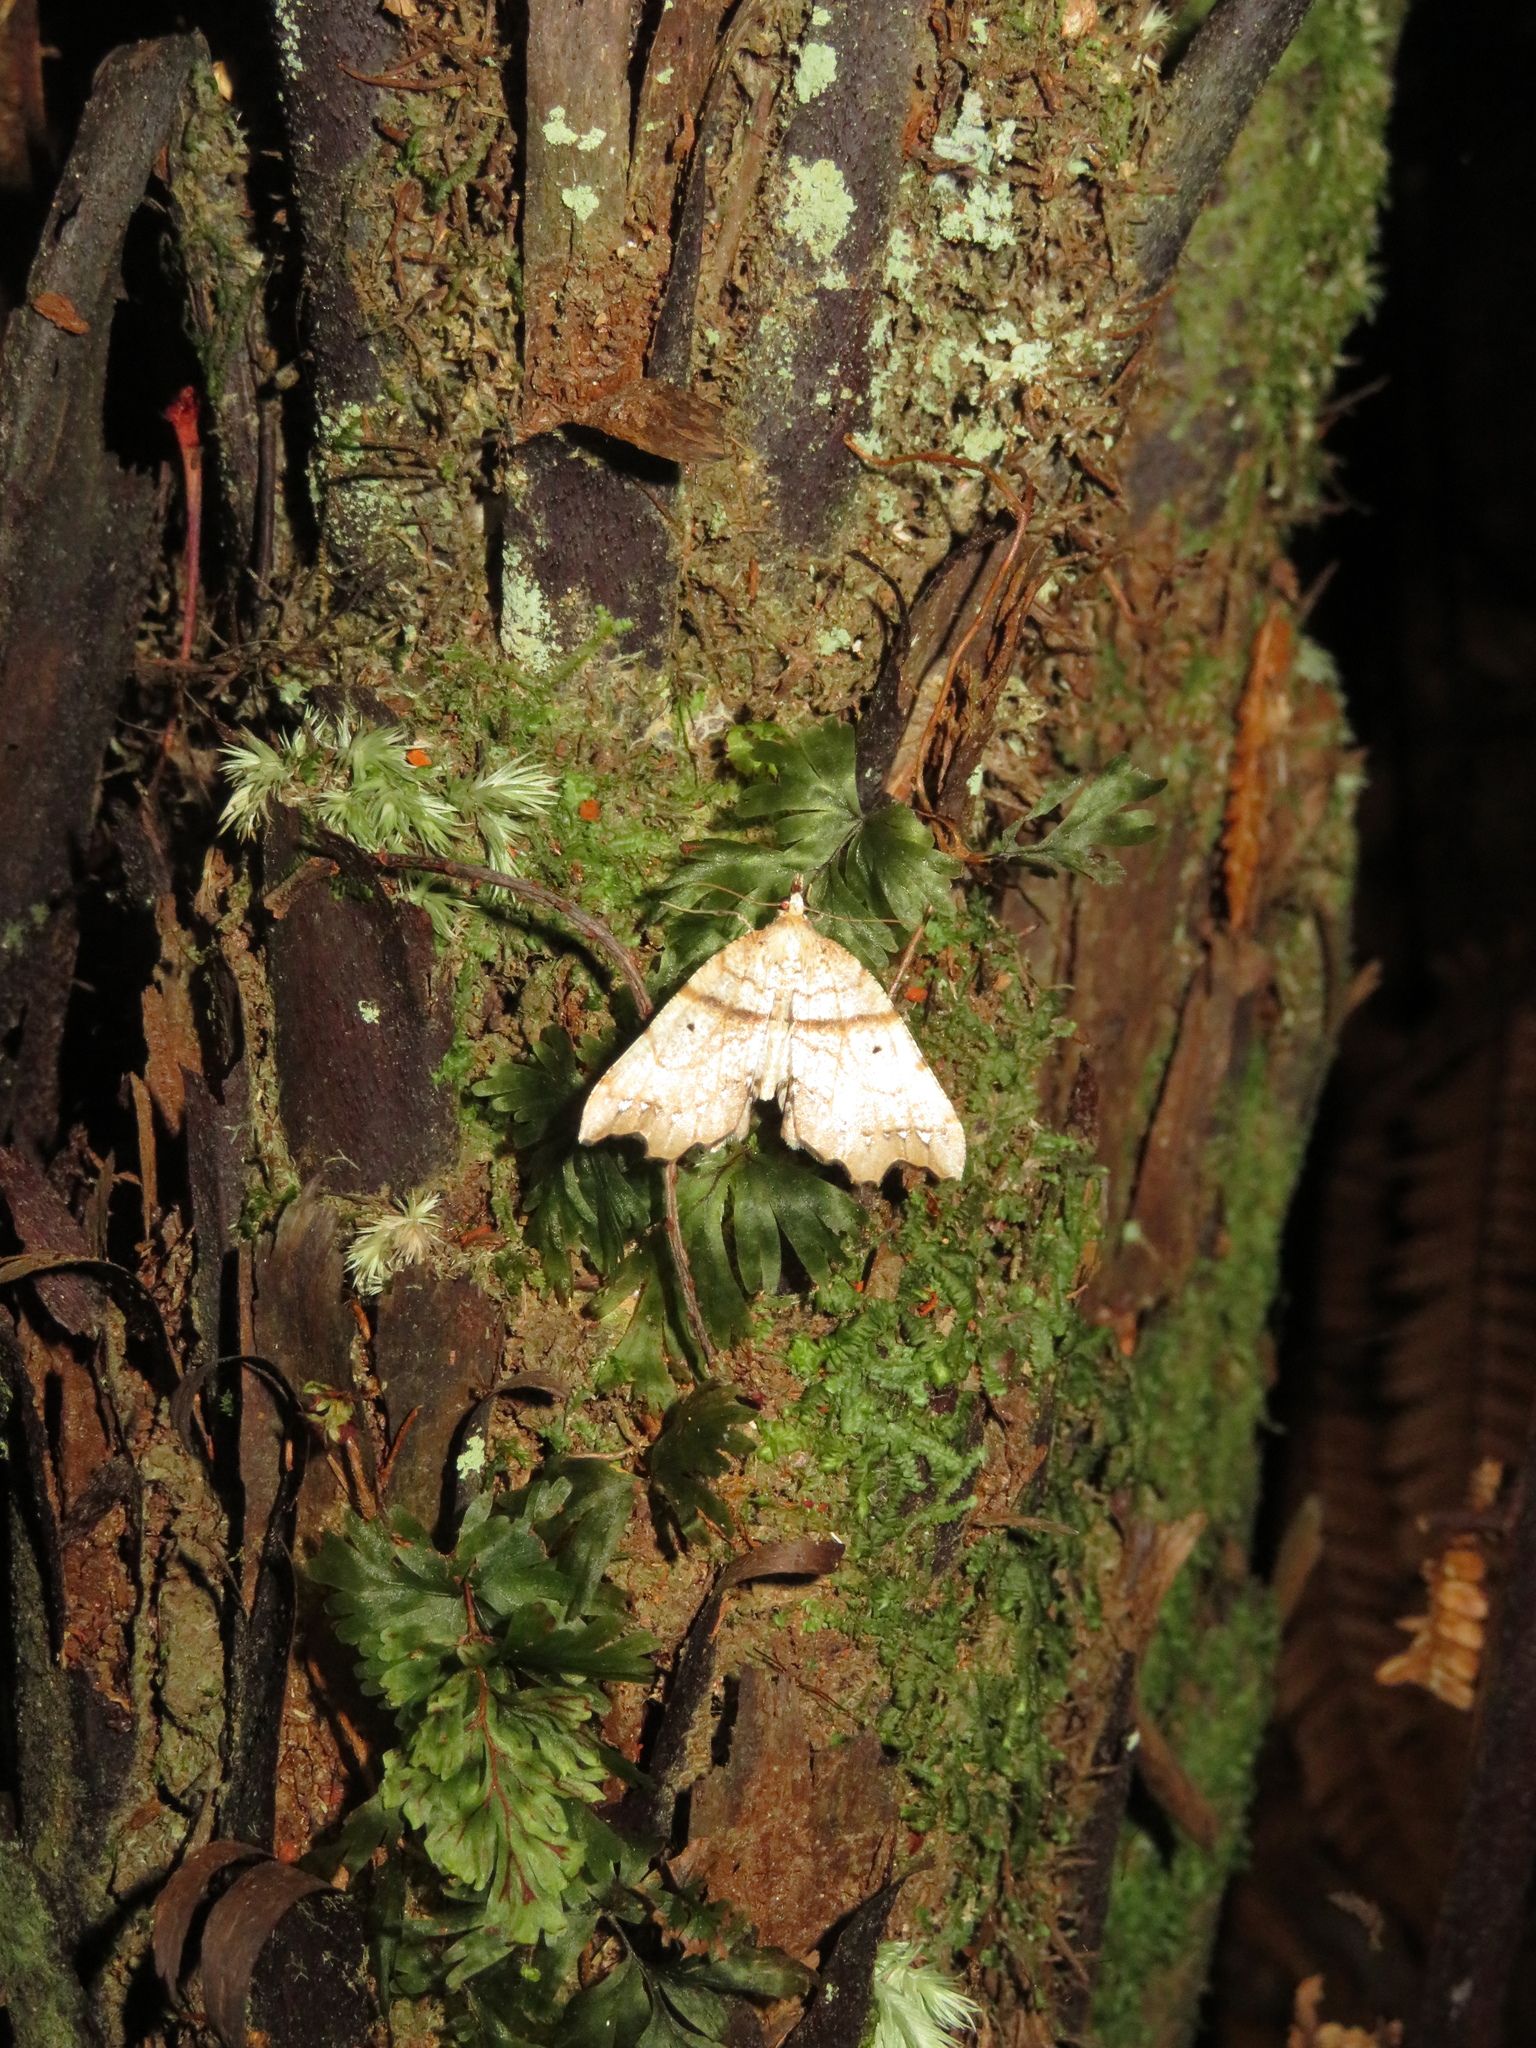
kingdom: Animalia
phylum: Arthropoda
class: Insecta
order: Lepidoptera
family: Geometridae
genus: Chalastra
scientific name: Chalastra pellurgata
